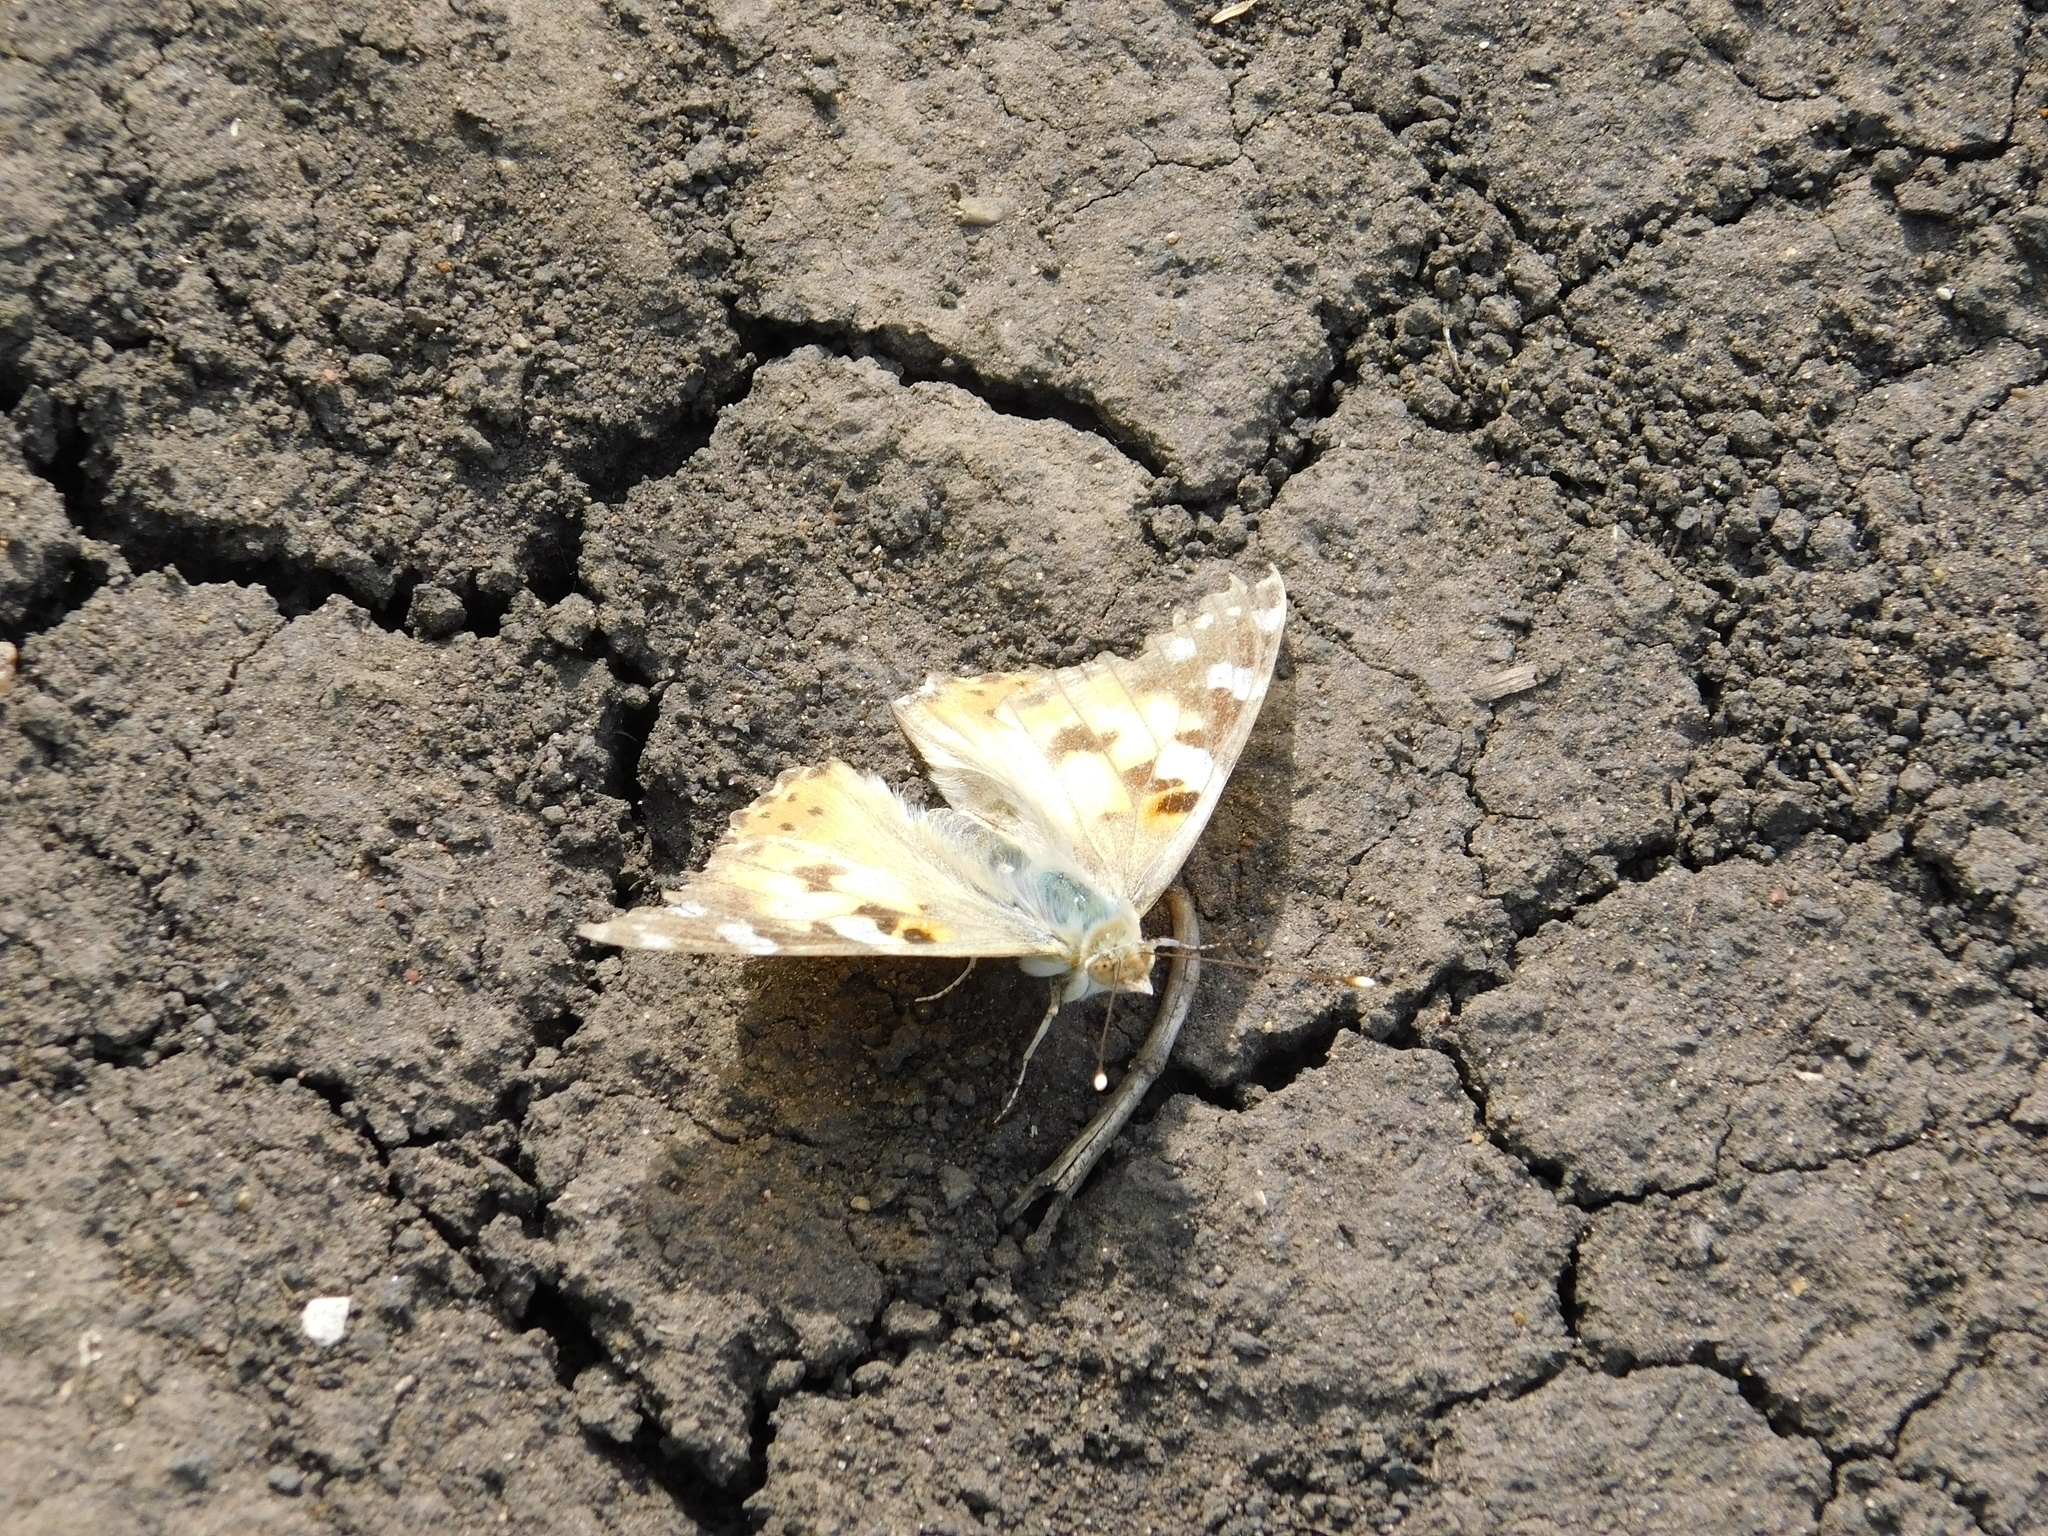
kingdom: Animalia
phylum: Arthropoda
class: Insecta
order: Lepidoptera
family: Nymphalidae
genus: Vanessa
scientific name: Vanessa cardui
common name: Painted lady
